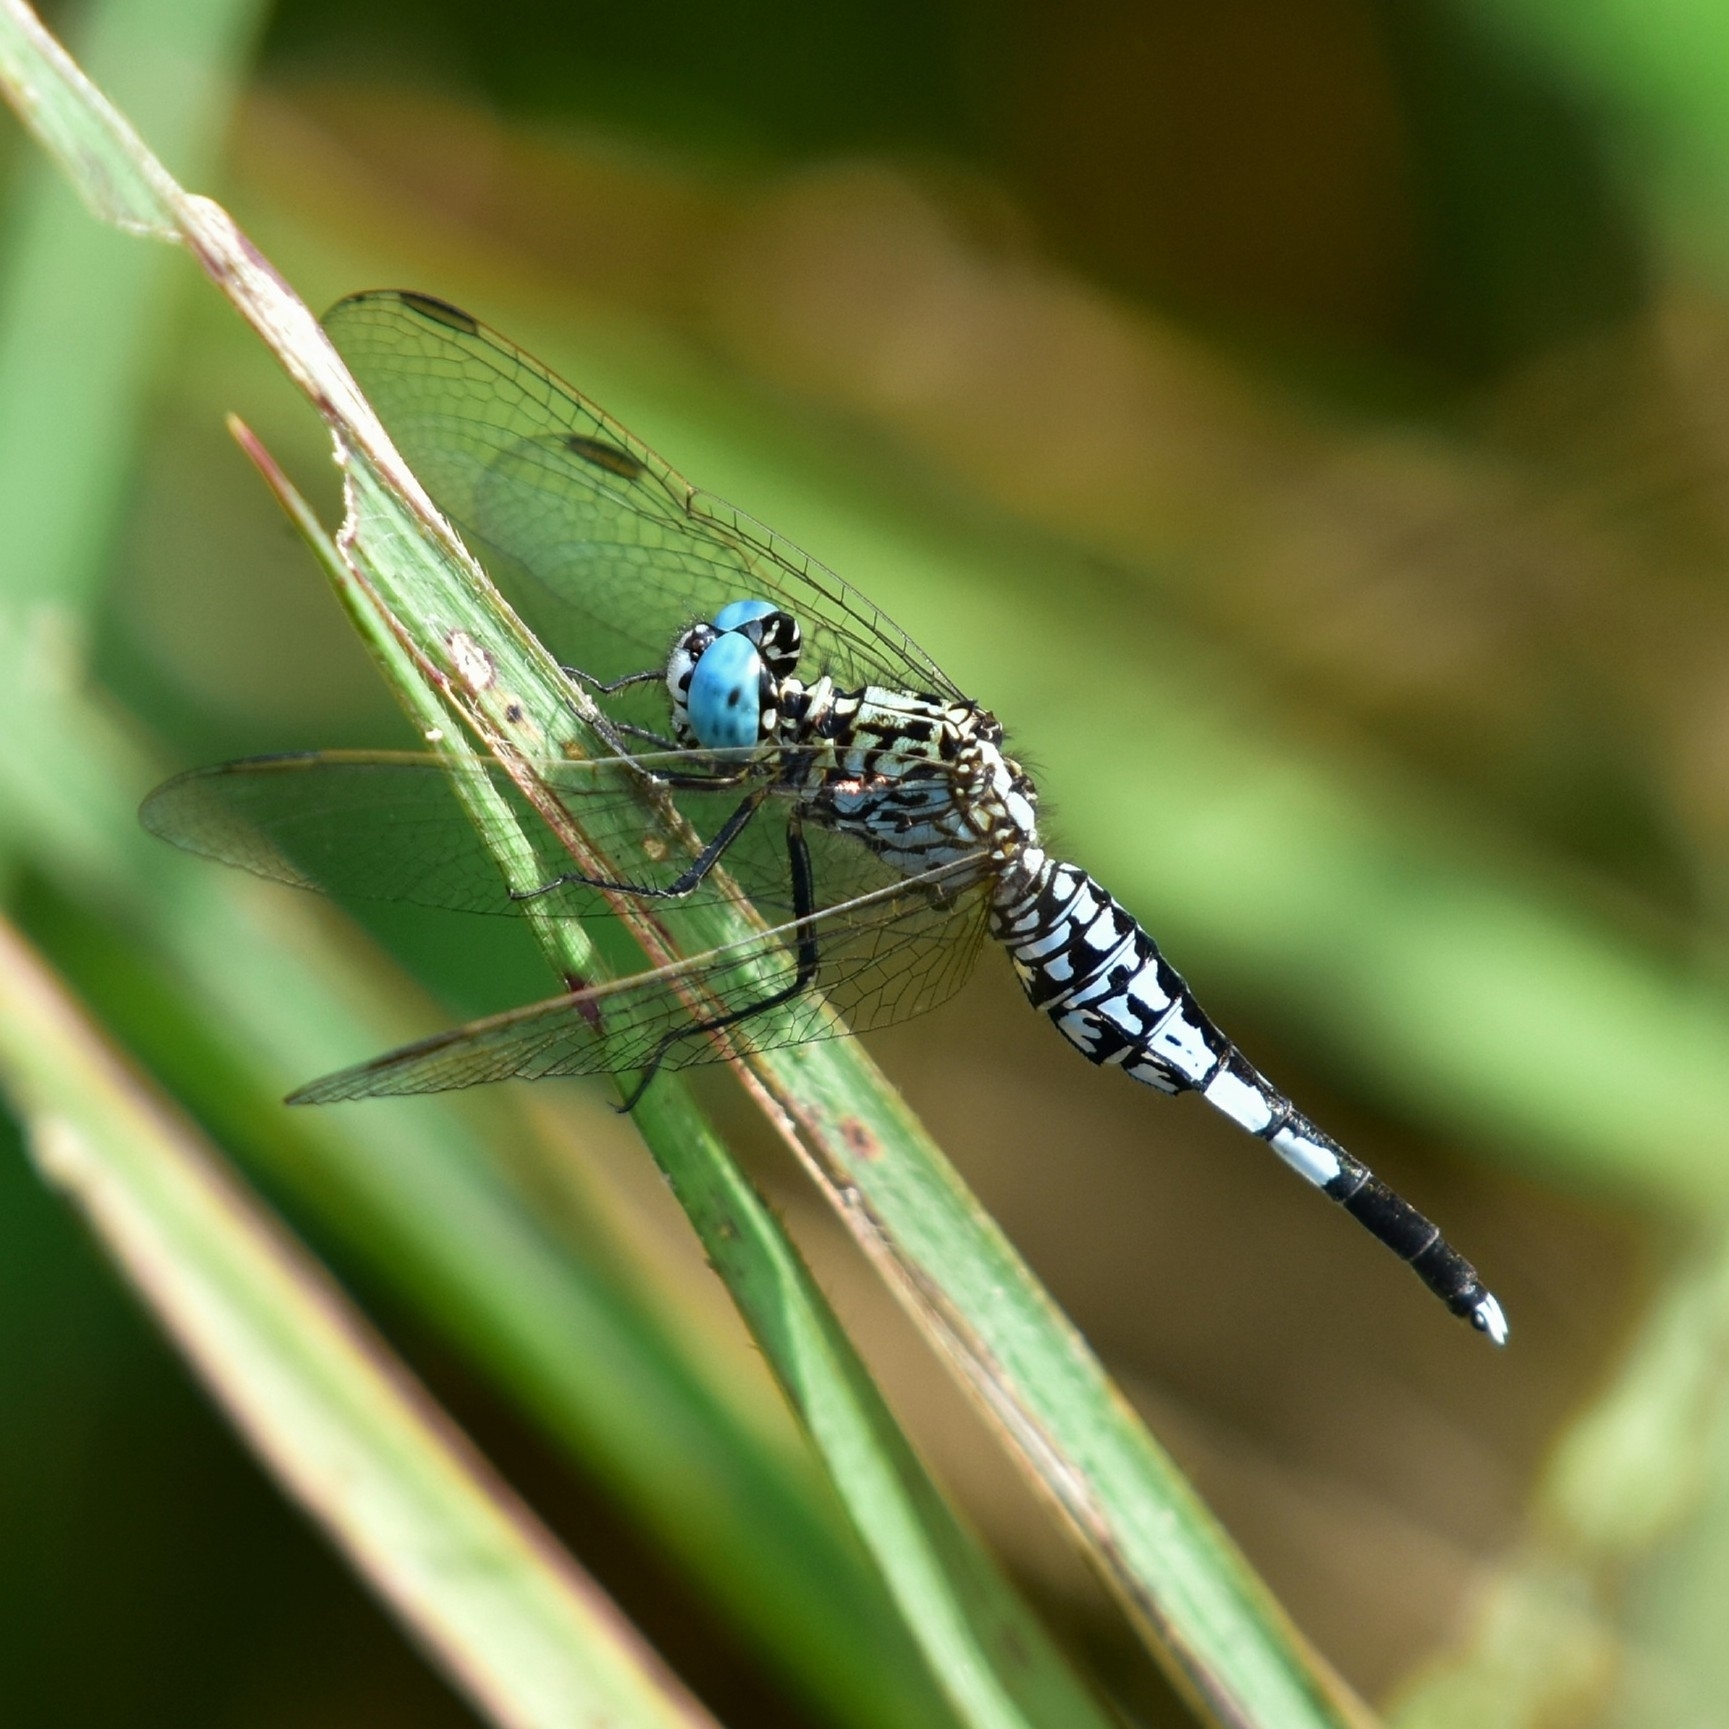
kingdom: Animalia
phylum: Arthropoda
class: Insecta
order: Odonata
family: Libellulidae
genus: Acisoma
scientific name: Acisoma panorpoides
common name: Asian pintail
